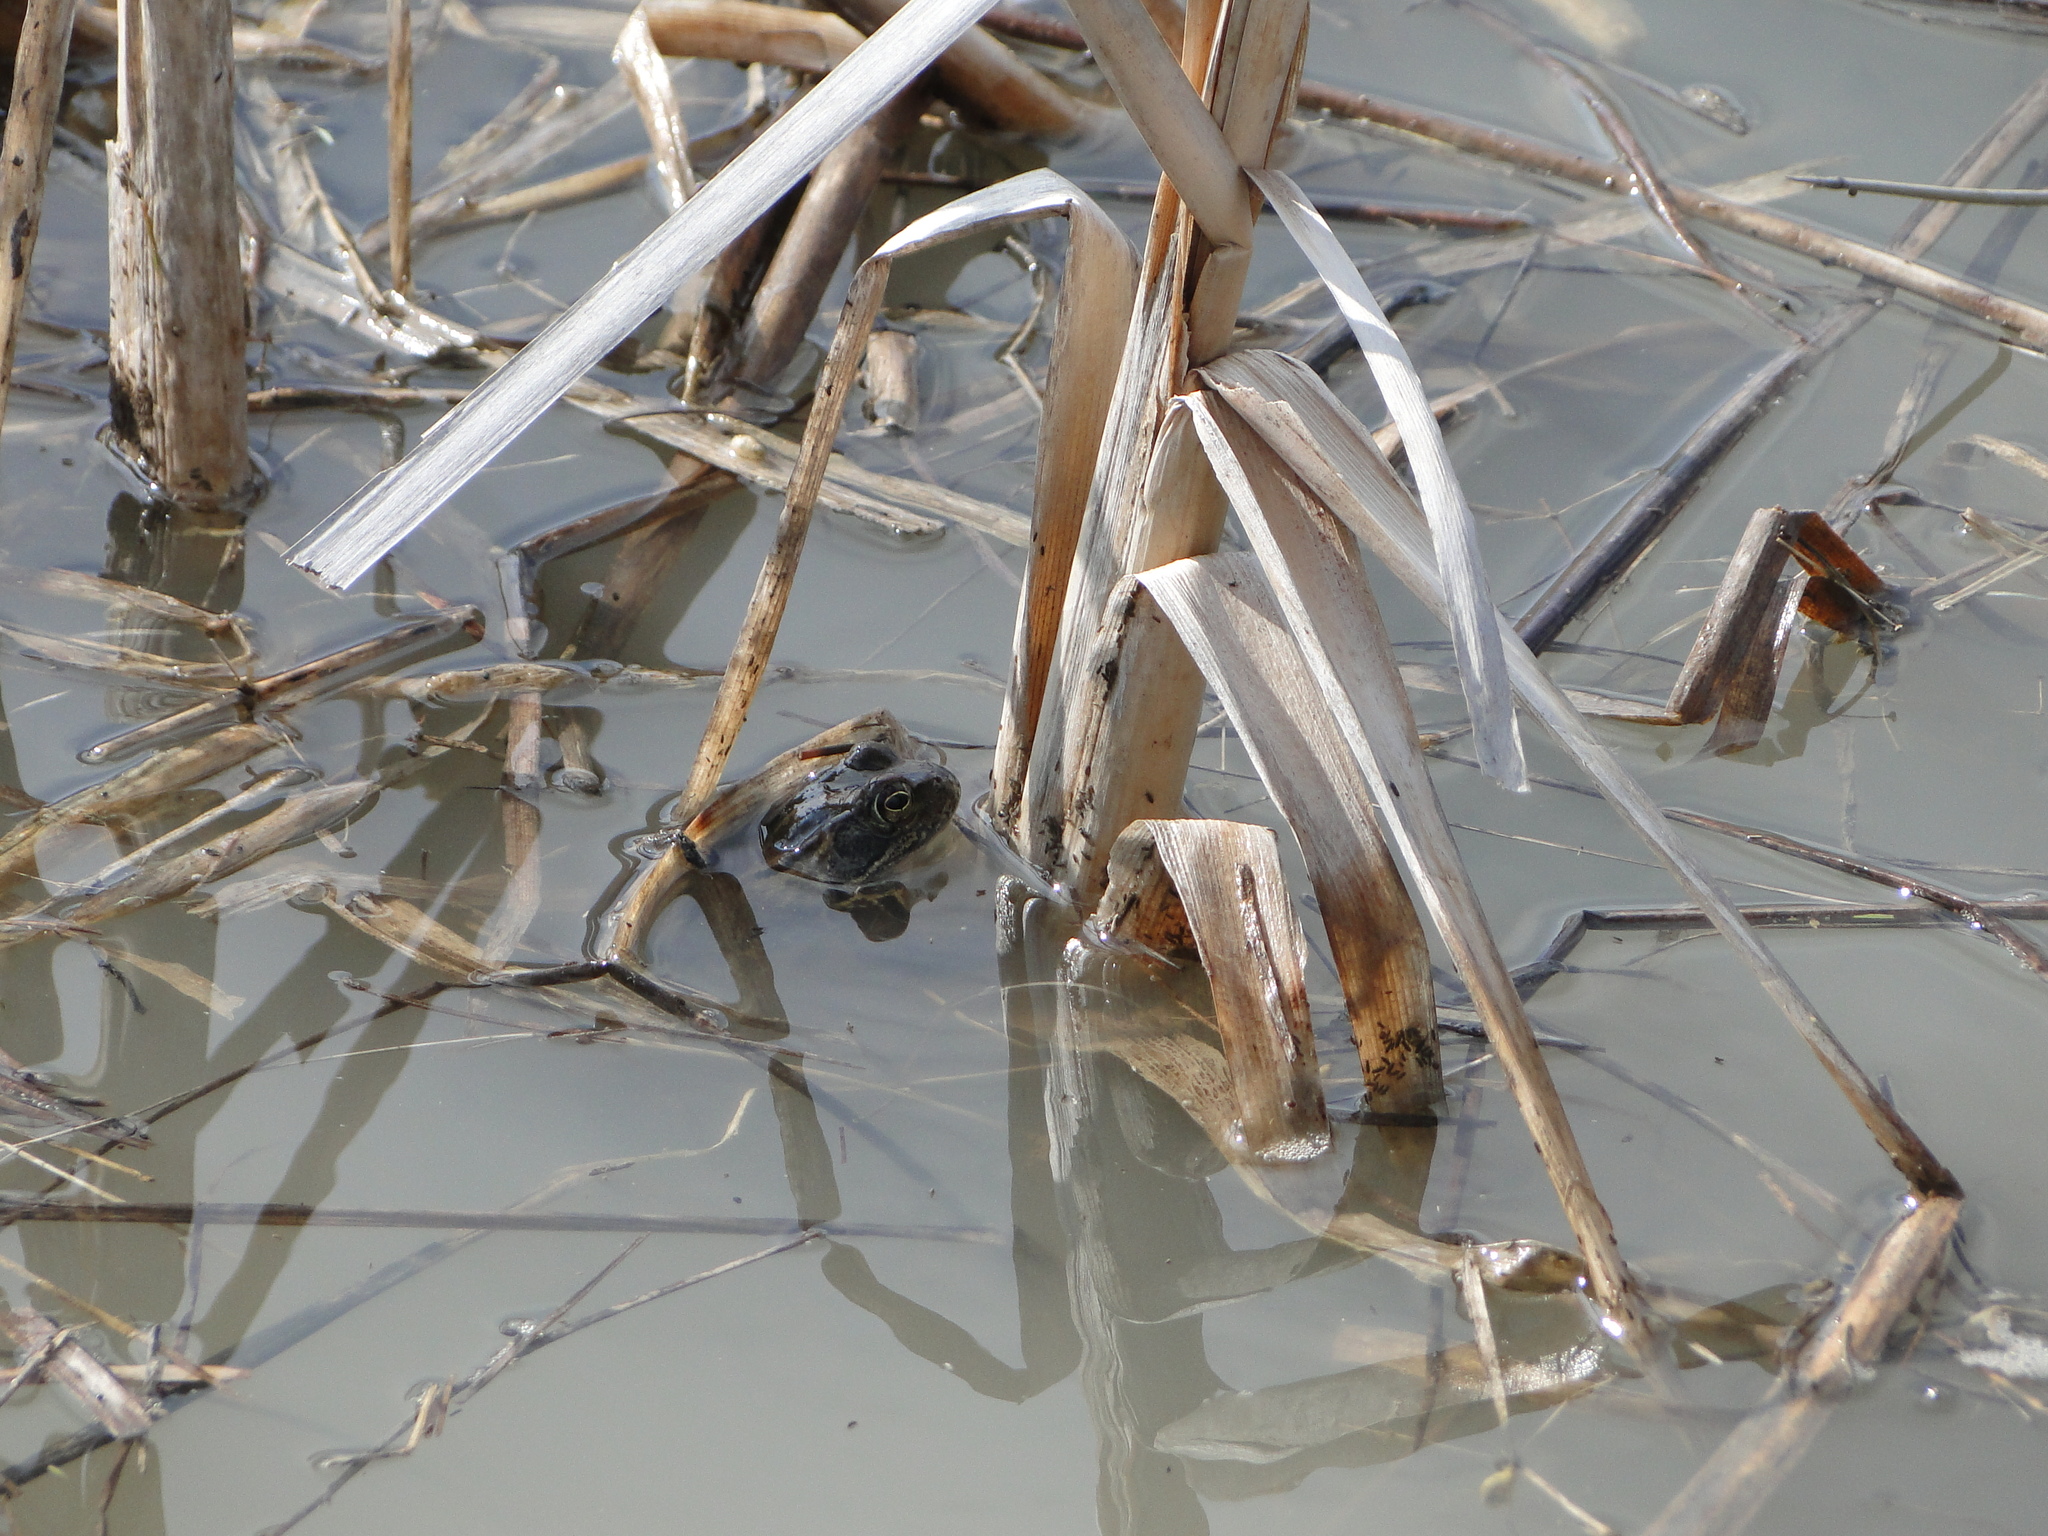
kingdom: Animalia
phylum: Chordata
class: Amphibia
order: Anura
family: Ranidae
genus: Rana
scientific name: Rana temporaria
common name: Common frog
